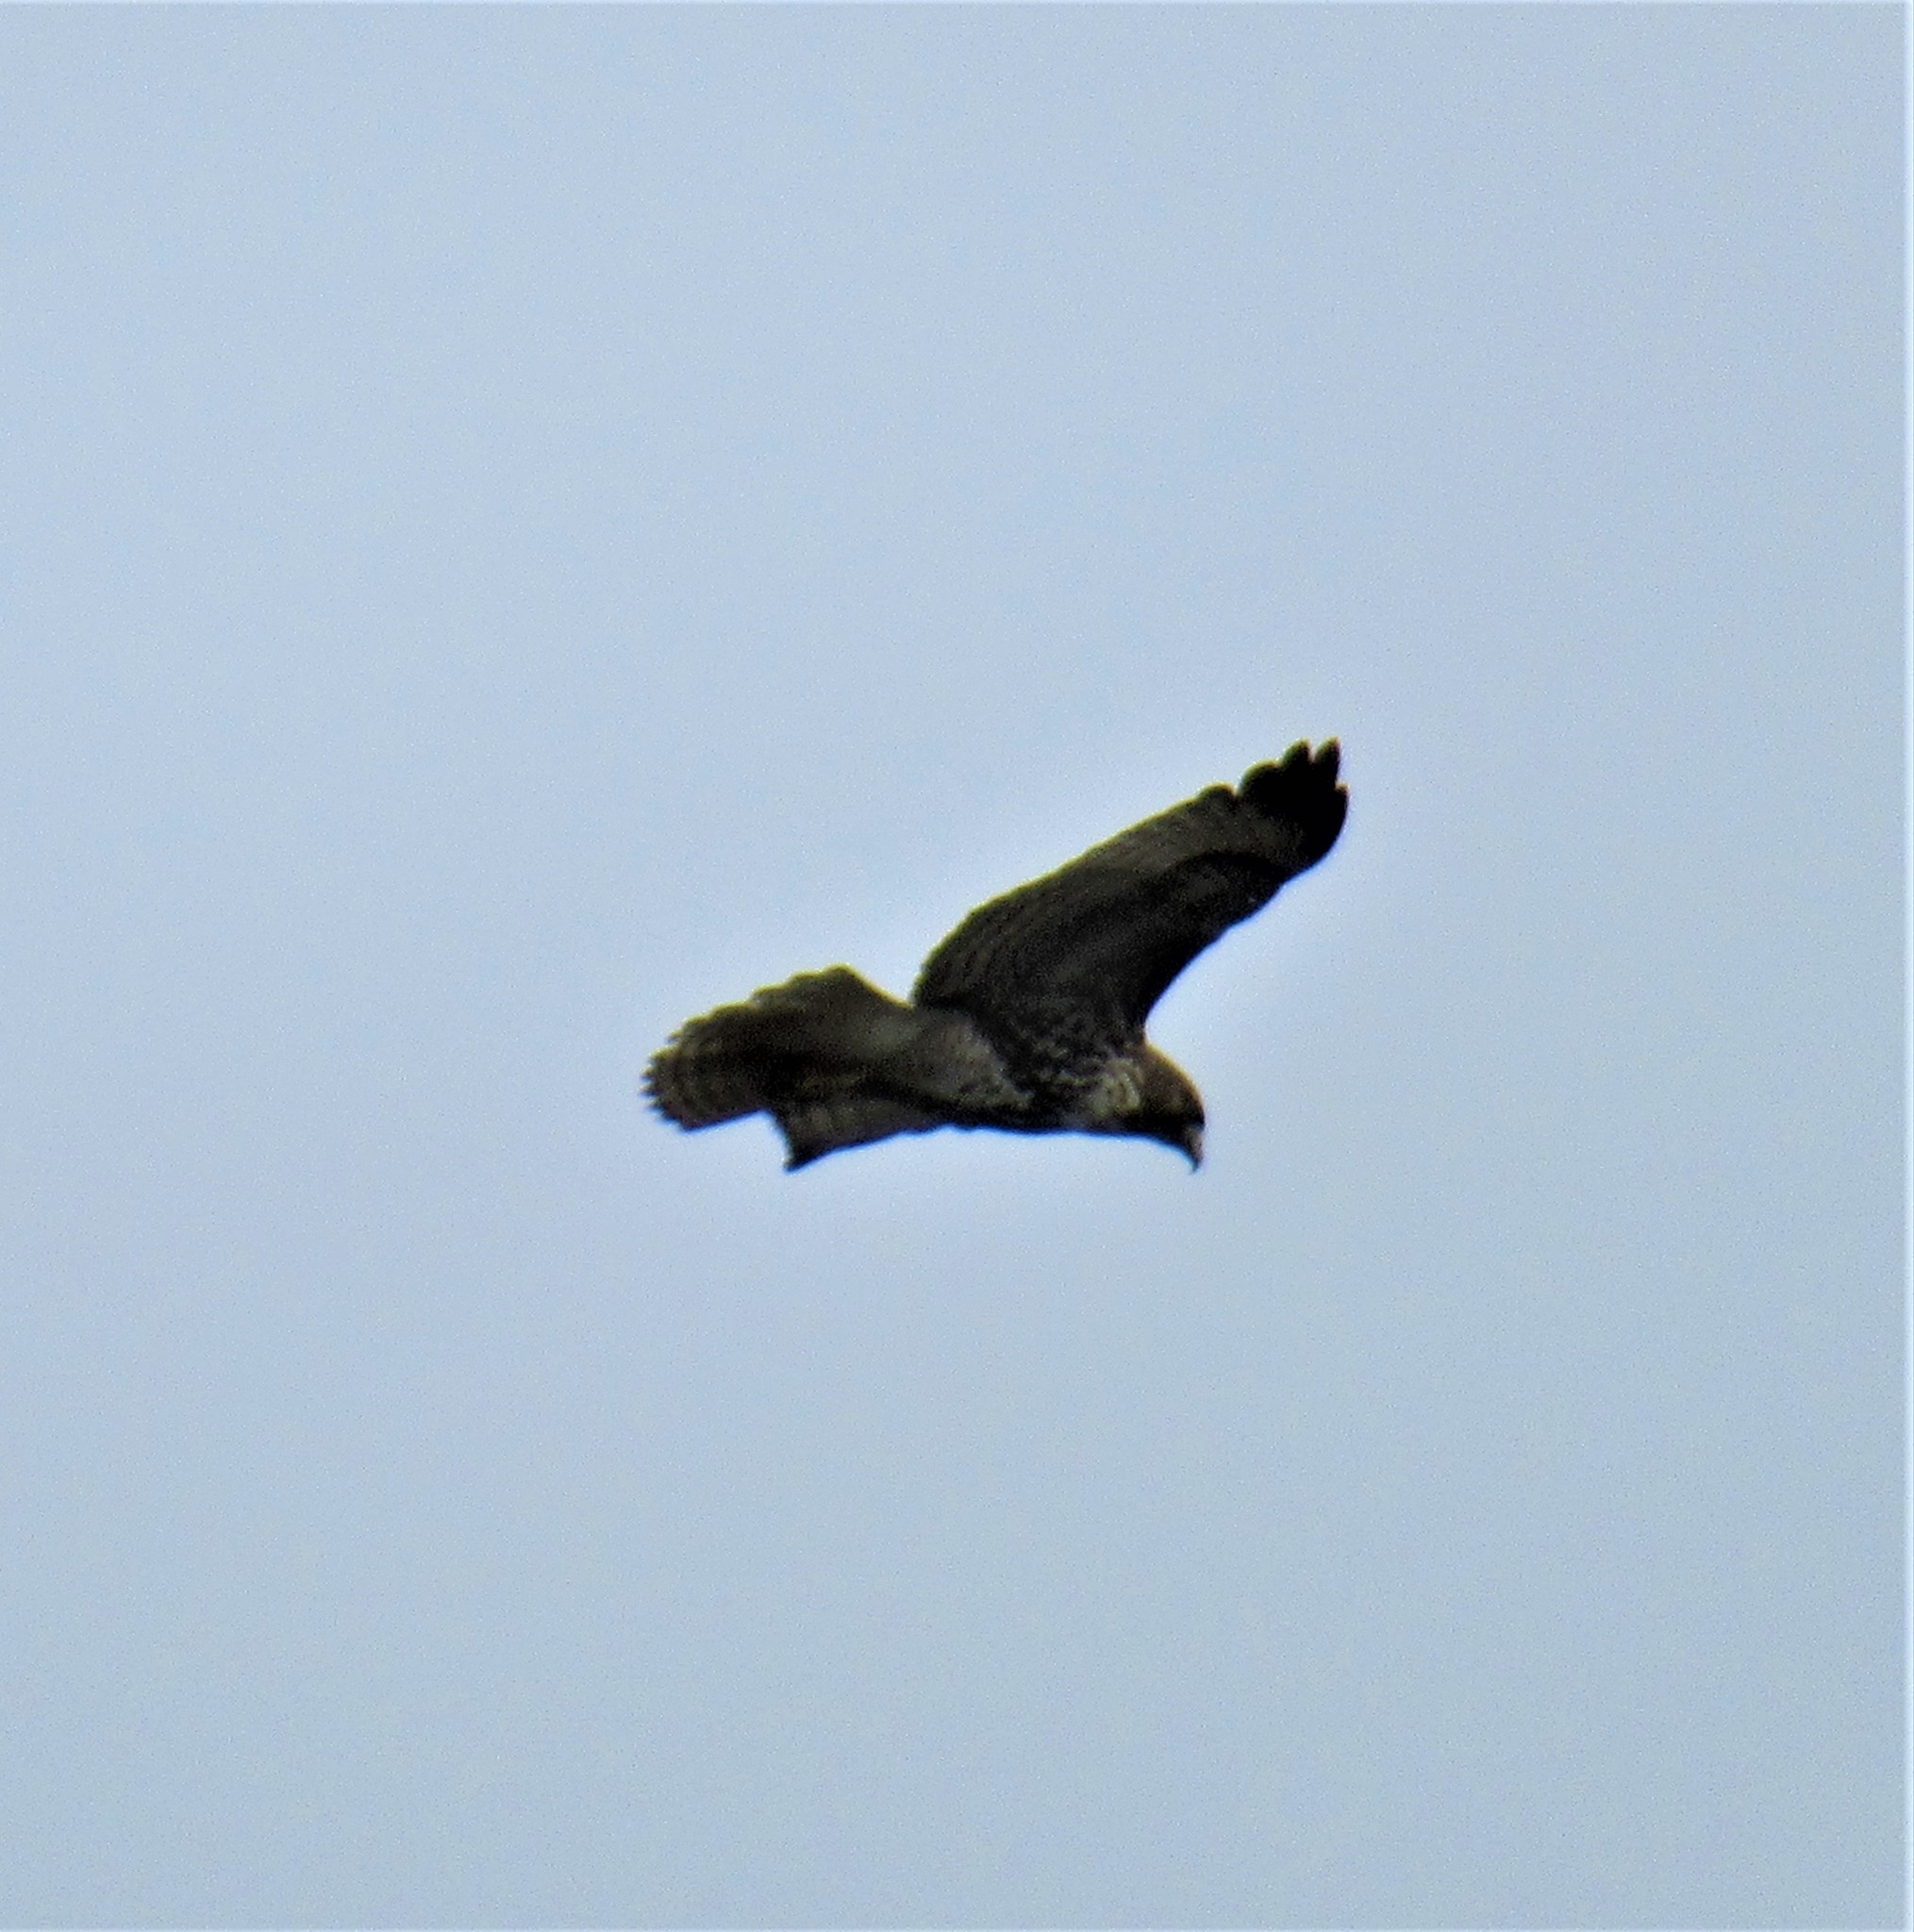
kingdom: Animalia
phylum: Chordata
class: Aves
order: Accipitriformes
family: Accipitridae
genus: Buteo
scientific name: Buteo jamaicensis
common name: Red-tailed hawk
